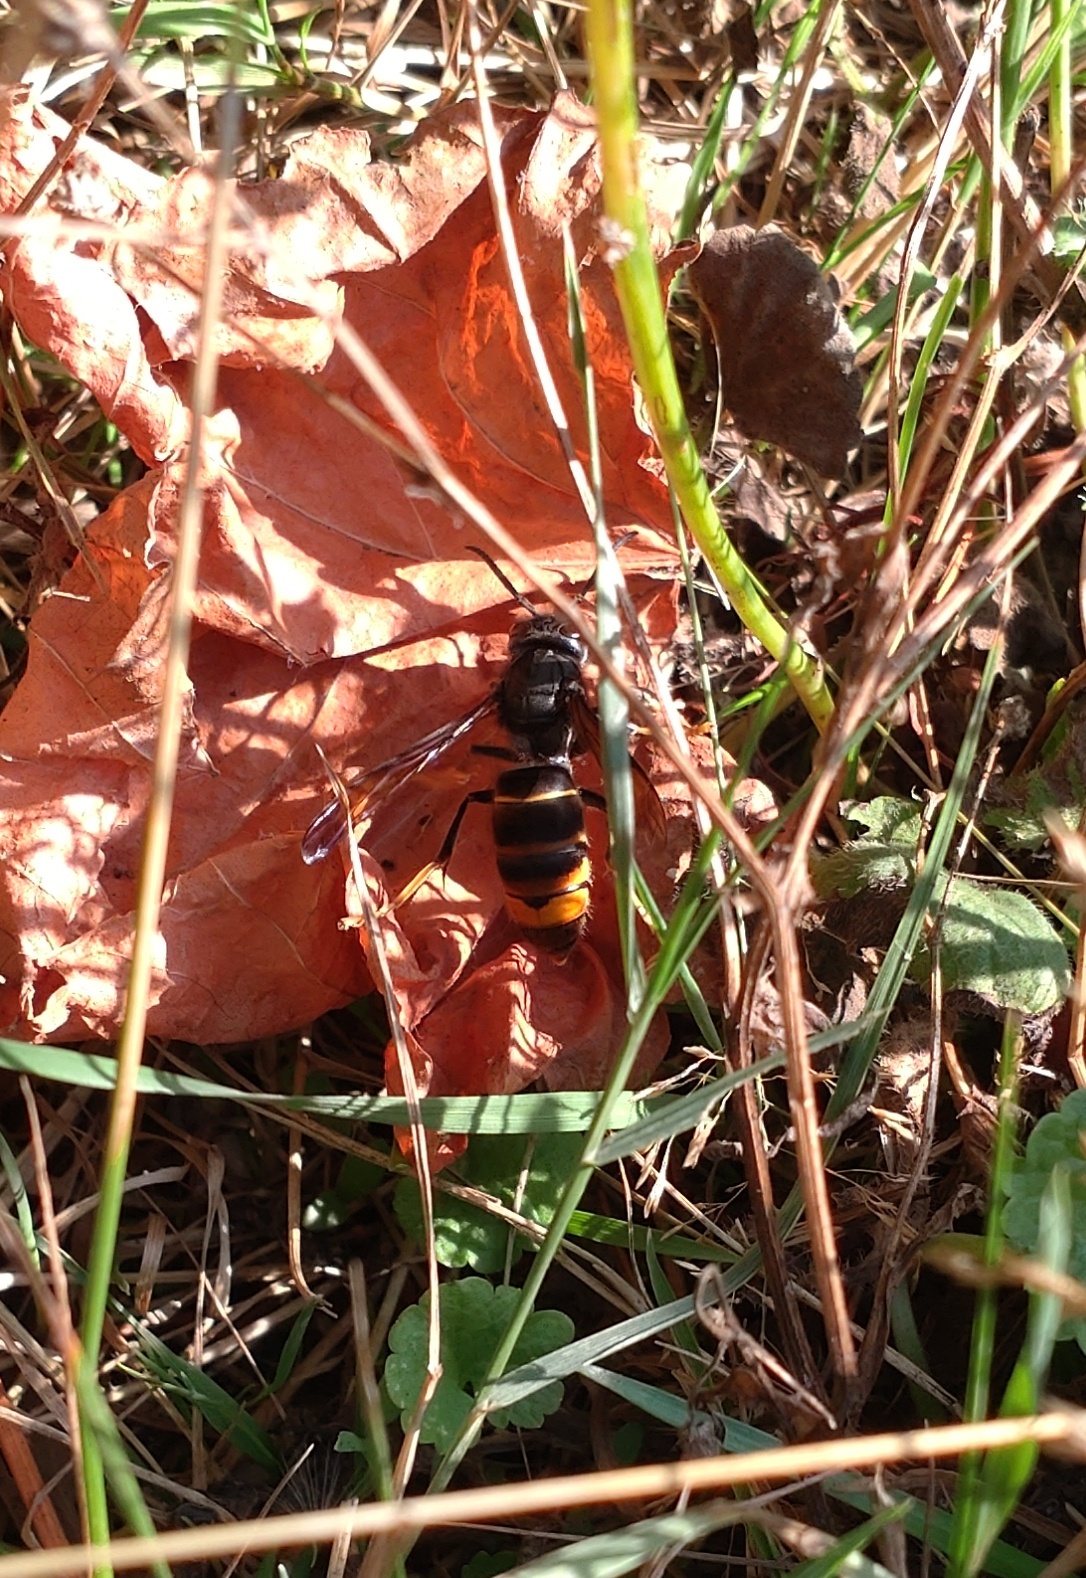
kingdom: Animalia
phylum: Arthropoda
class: Insecta
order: Hymenoptera
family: Vespidae
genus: Vespa
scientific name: Vespa velutina
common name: Asian hornet
